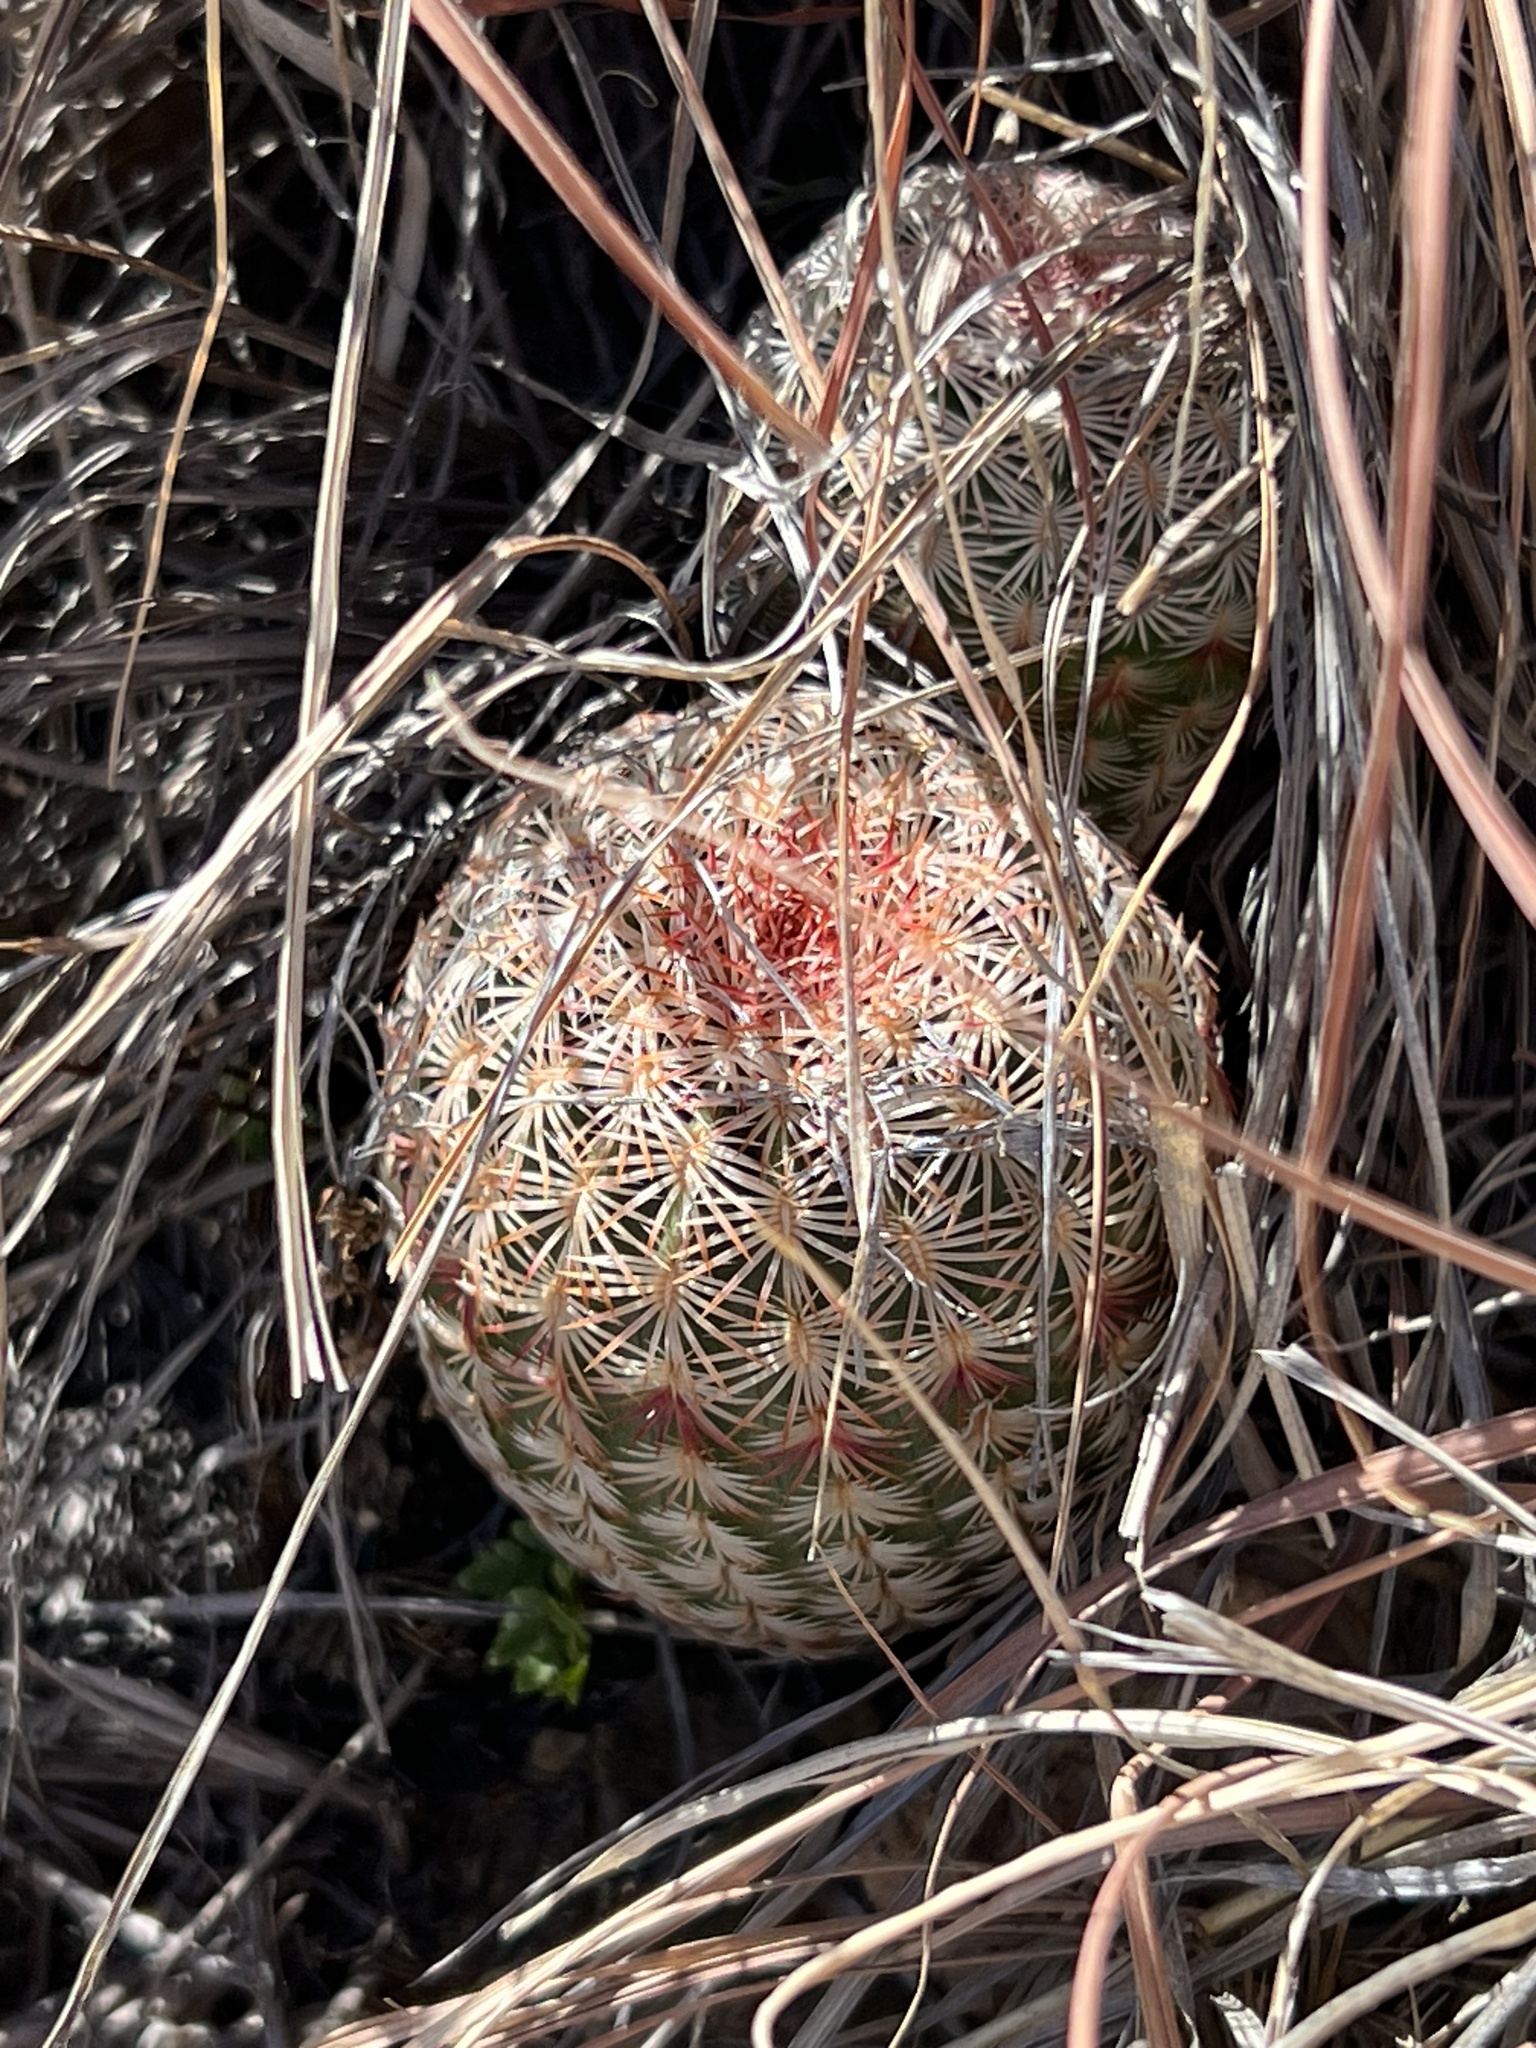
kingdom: Plantae
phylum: Tracheophyta
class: Magnoliopsida
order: Caryophyllales
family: Cactaceae
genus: Echinocereus
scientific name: Echinocereus rigidissimus
